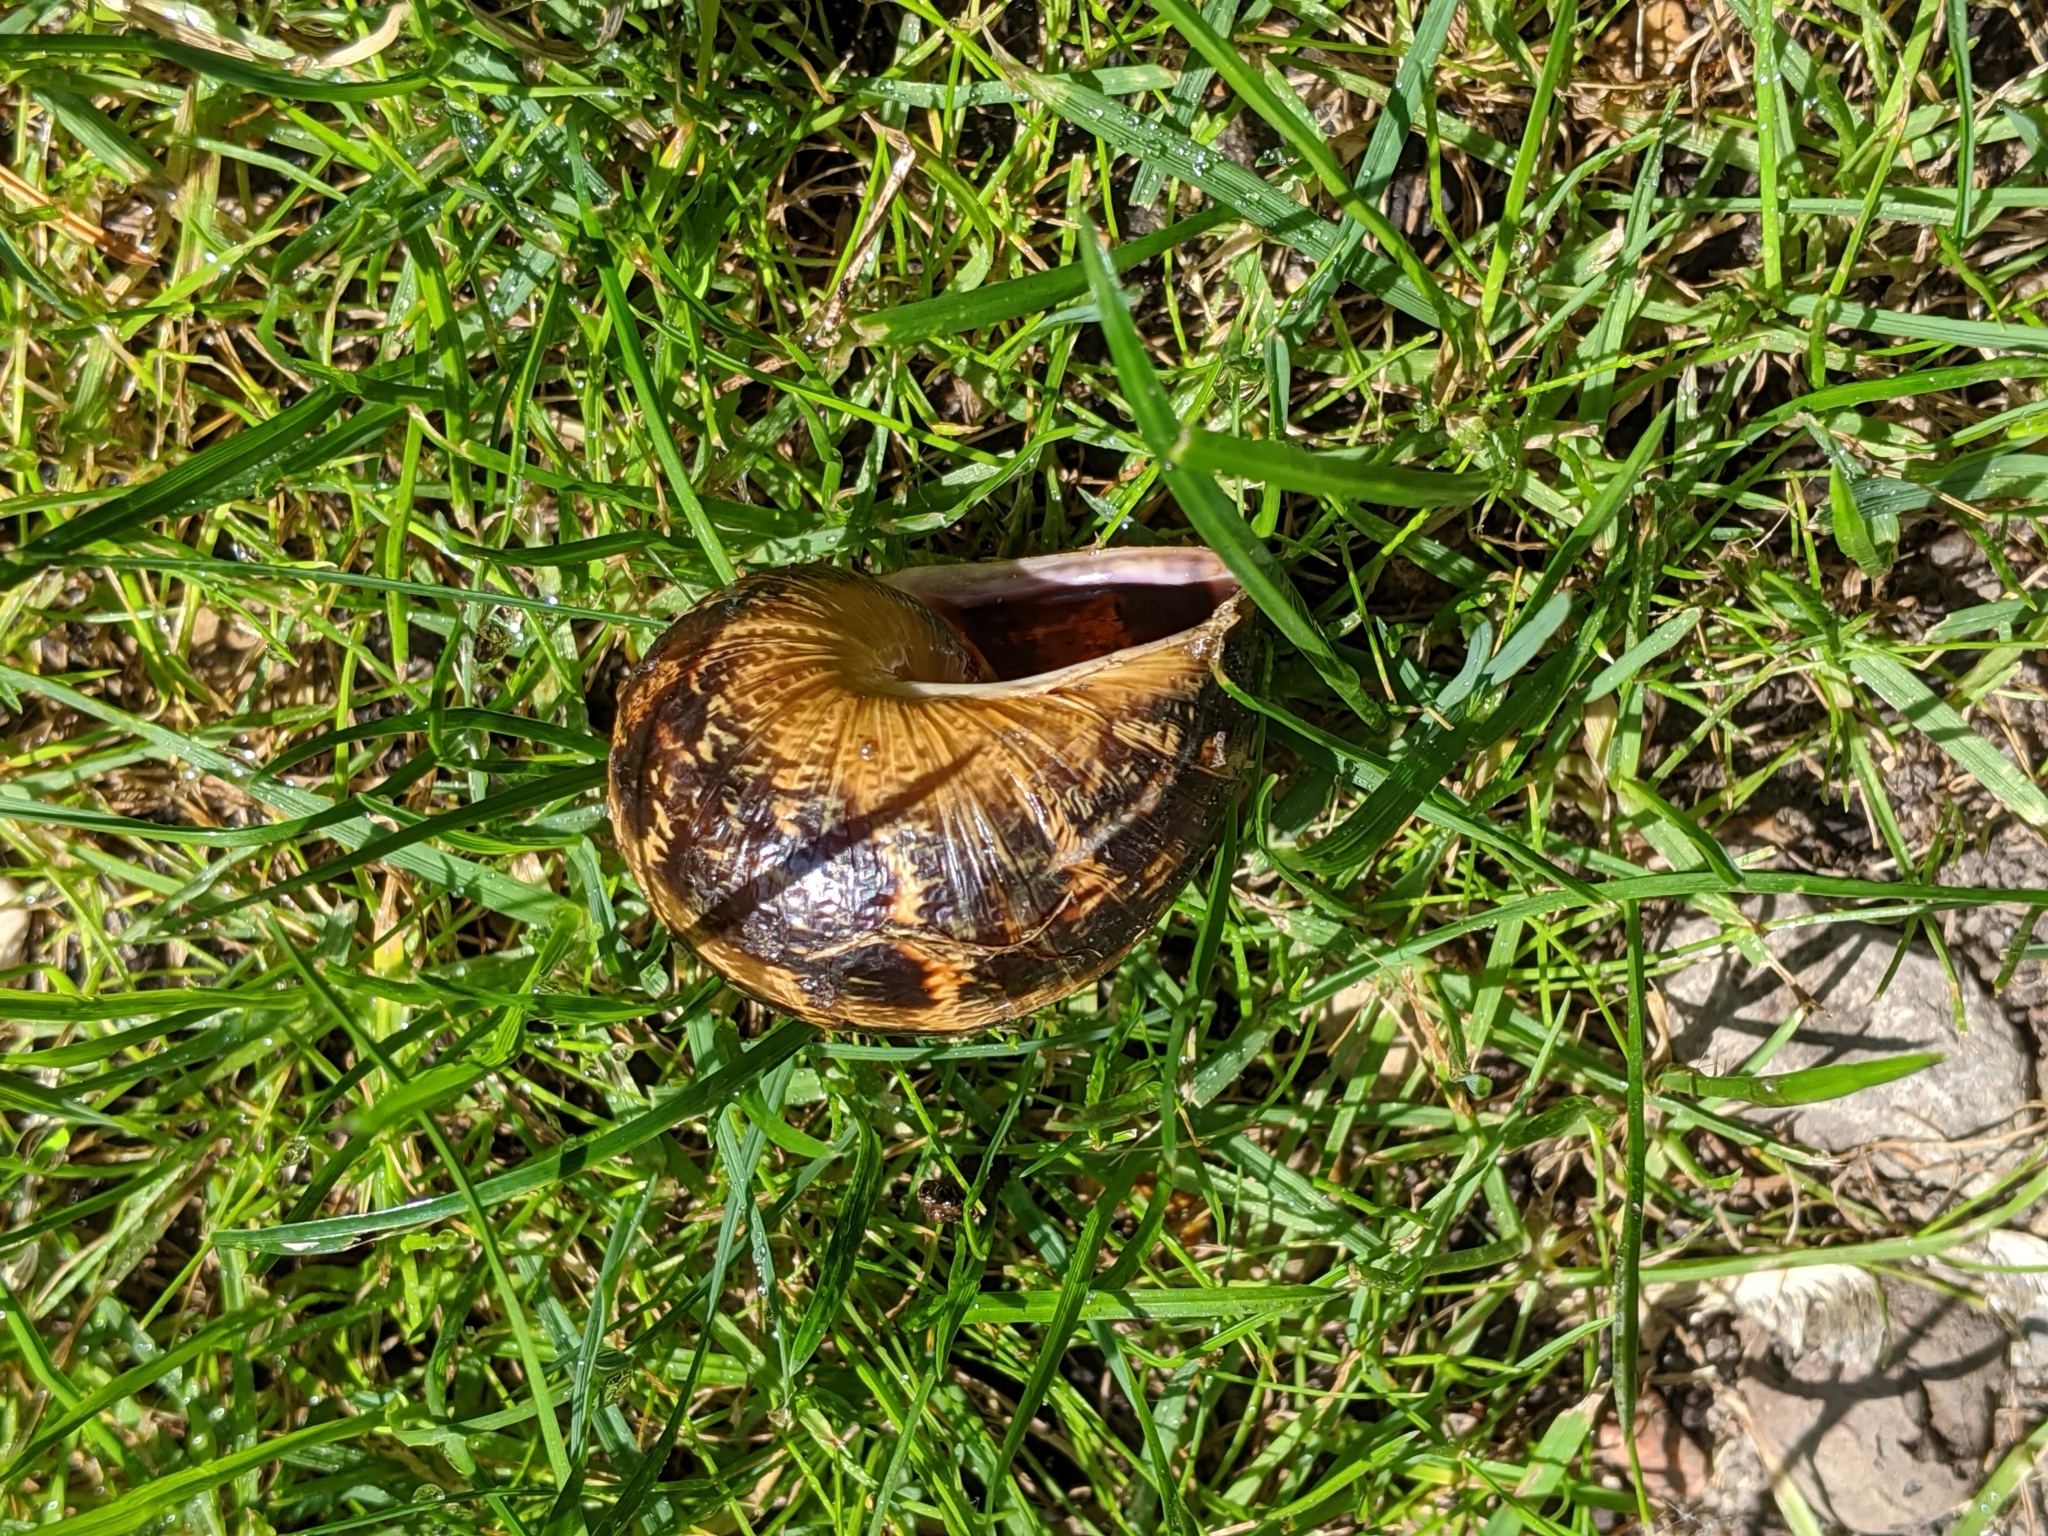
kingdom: Animalia
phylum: Mollusca
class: Gastropoda
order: Stylommatophora
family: Helicidae
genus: Cornu
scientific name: Cornu aspersum
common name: Brown garden snail
